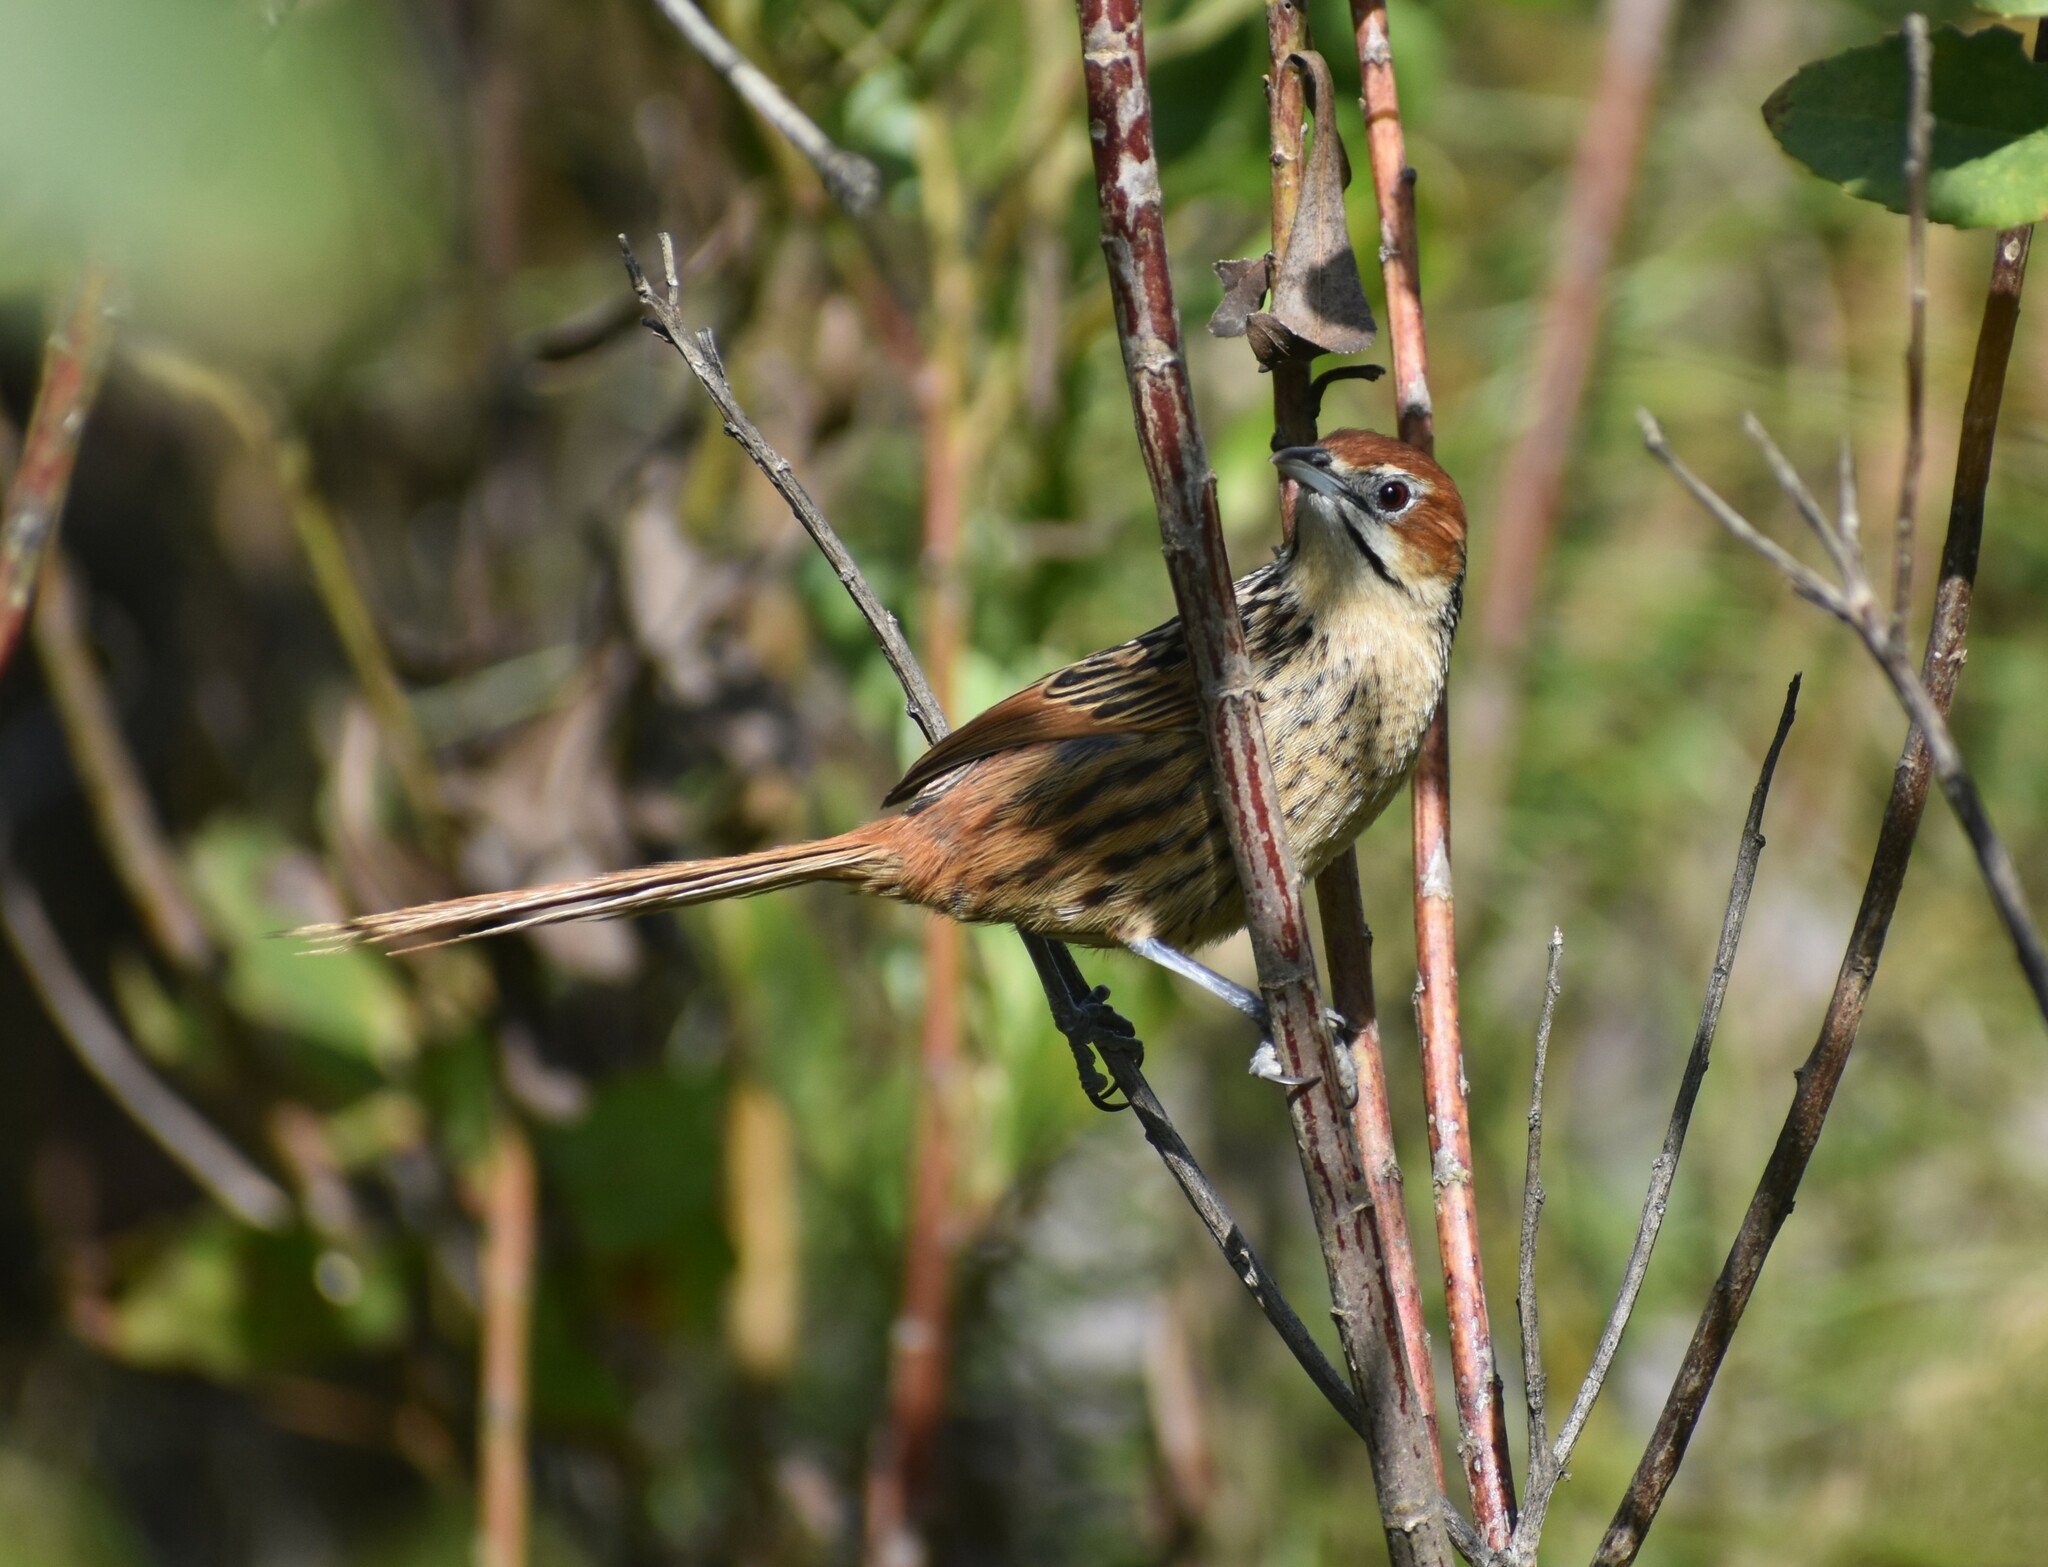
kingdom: Animalia
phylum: Chordata
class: Aves
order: Passeriformes
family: Macrosphenidae
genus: Sphenoeacus
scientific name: Sphenoeacus afer
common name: Cape grassbird
